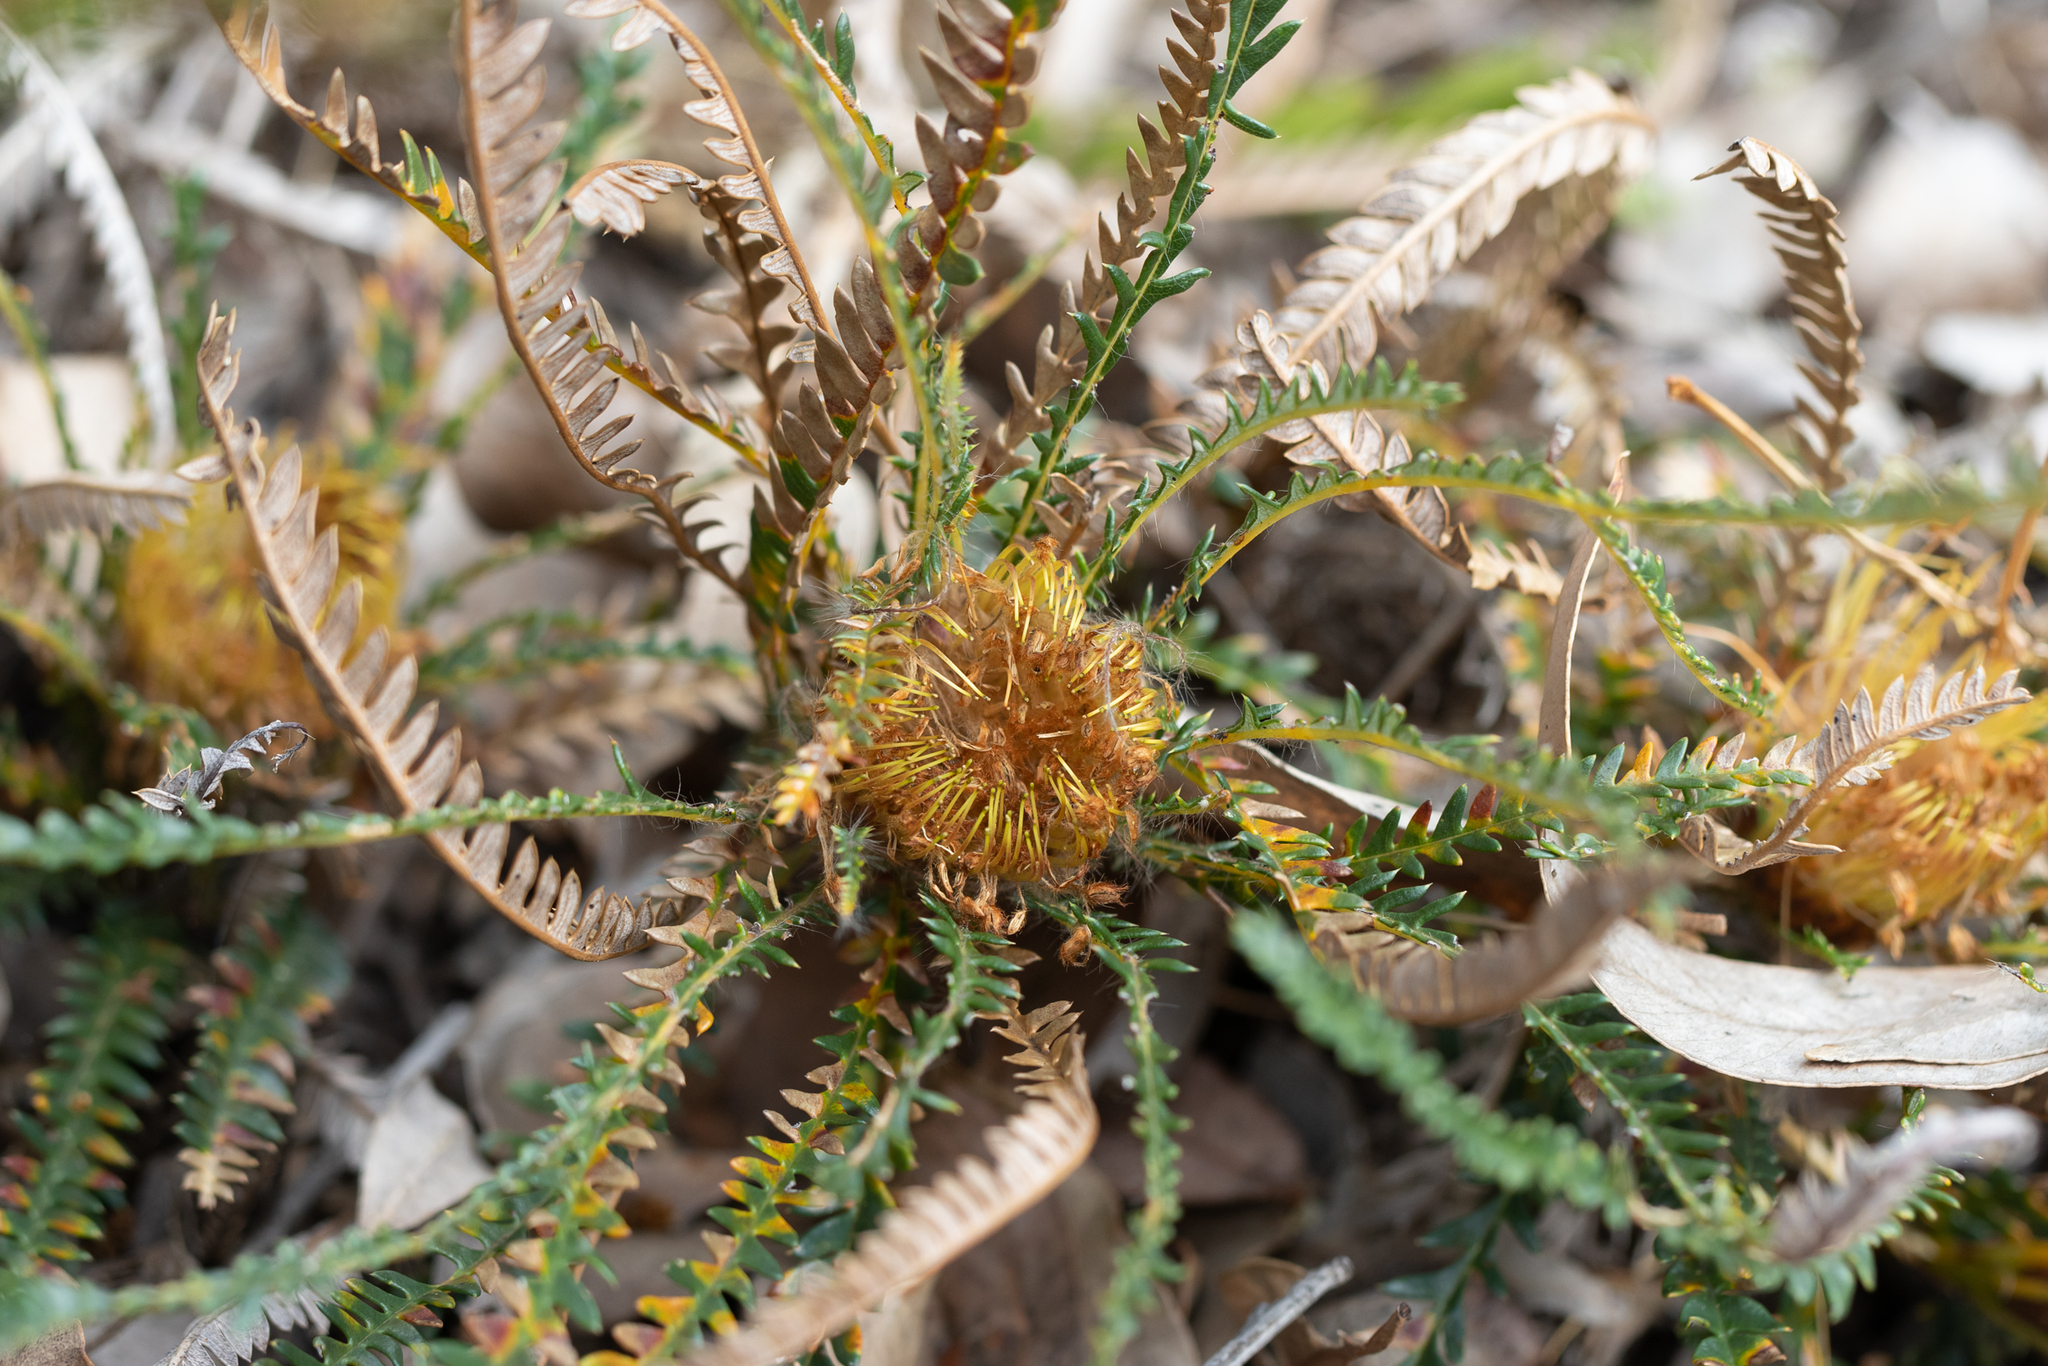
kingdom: Plantae
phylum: Tracheophyta
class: Magnoliopsida
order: Proteales
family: Proteaceae
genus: Banksia
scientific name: Banksia dallanneyi
